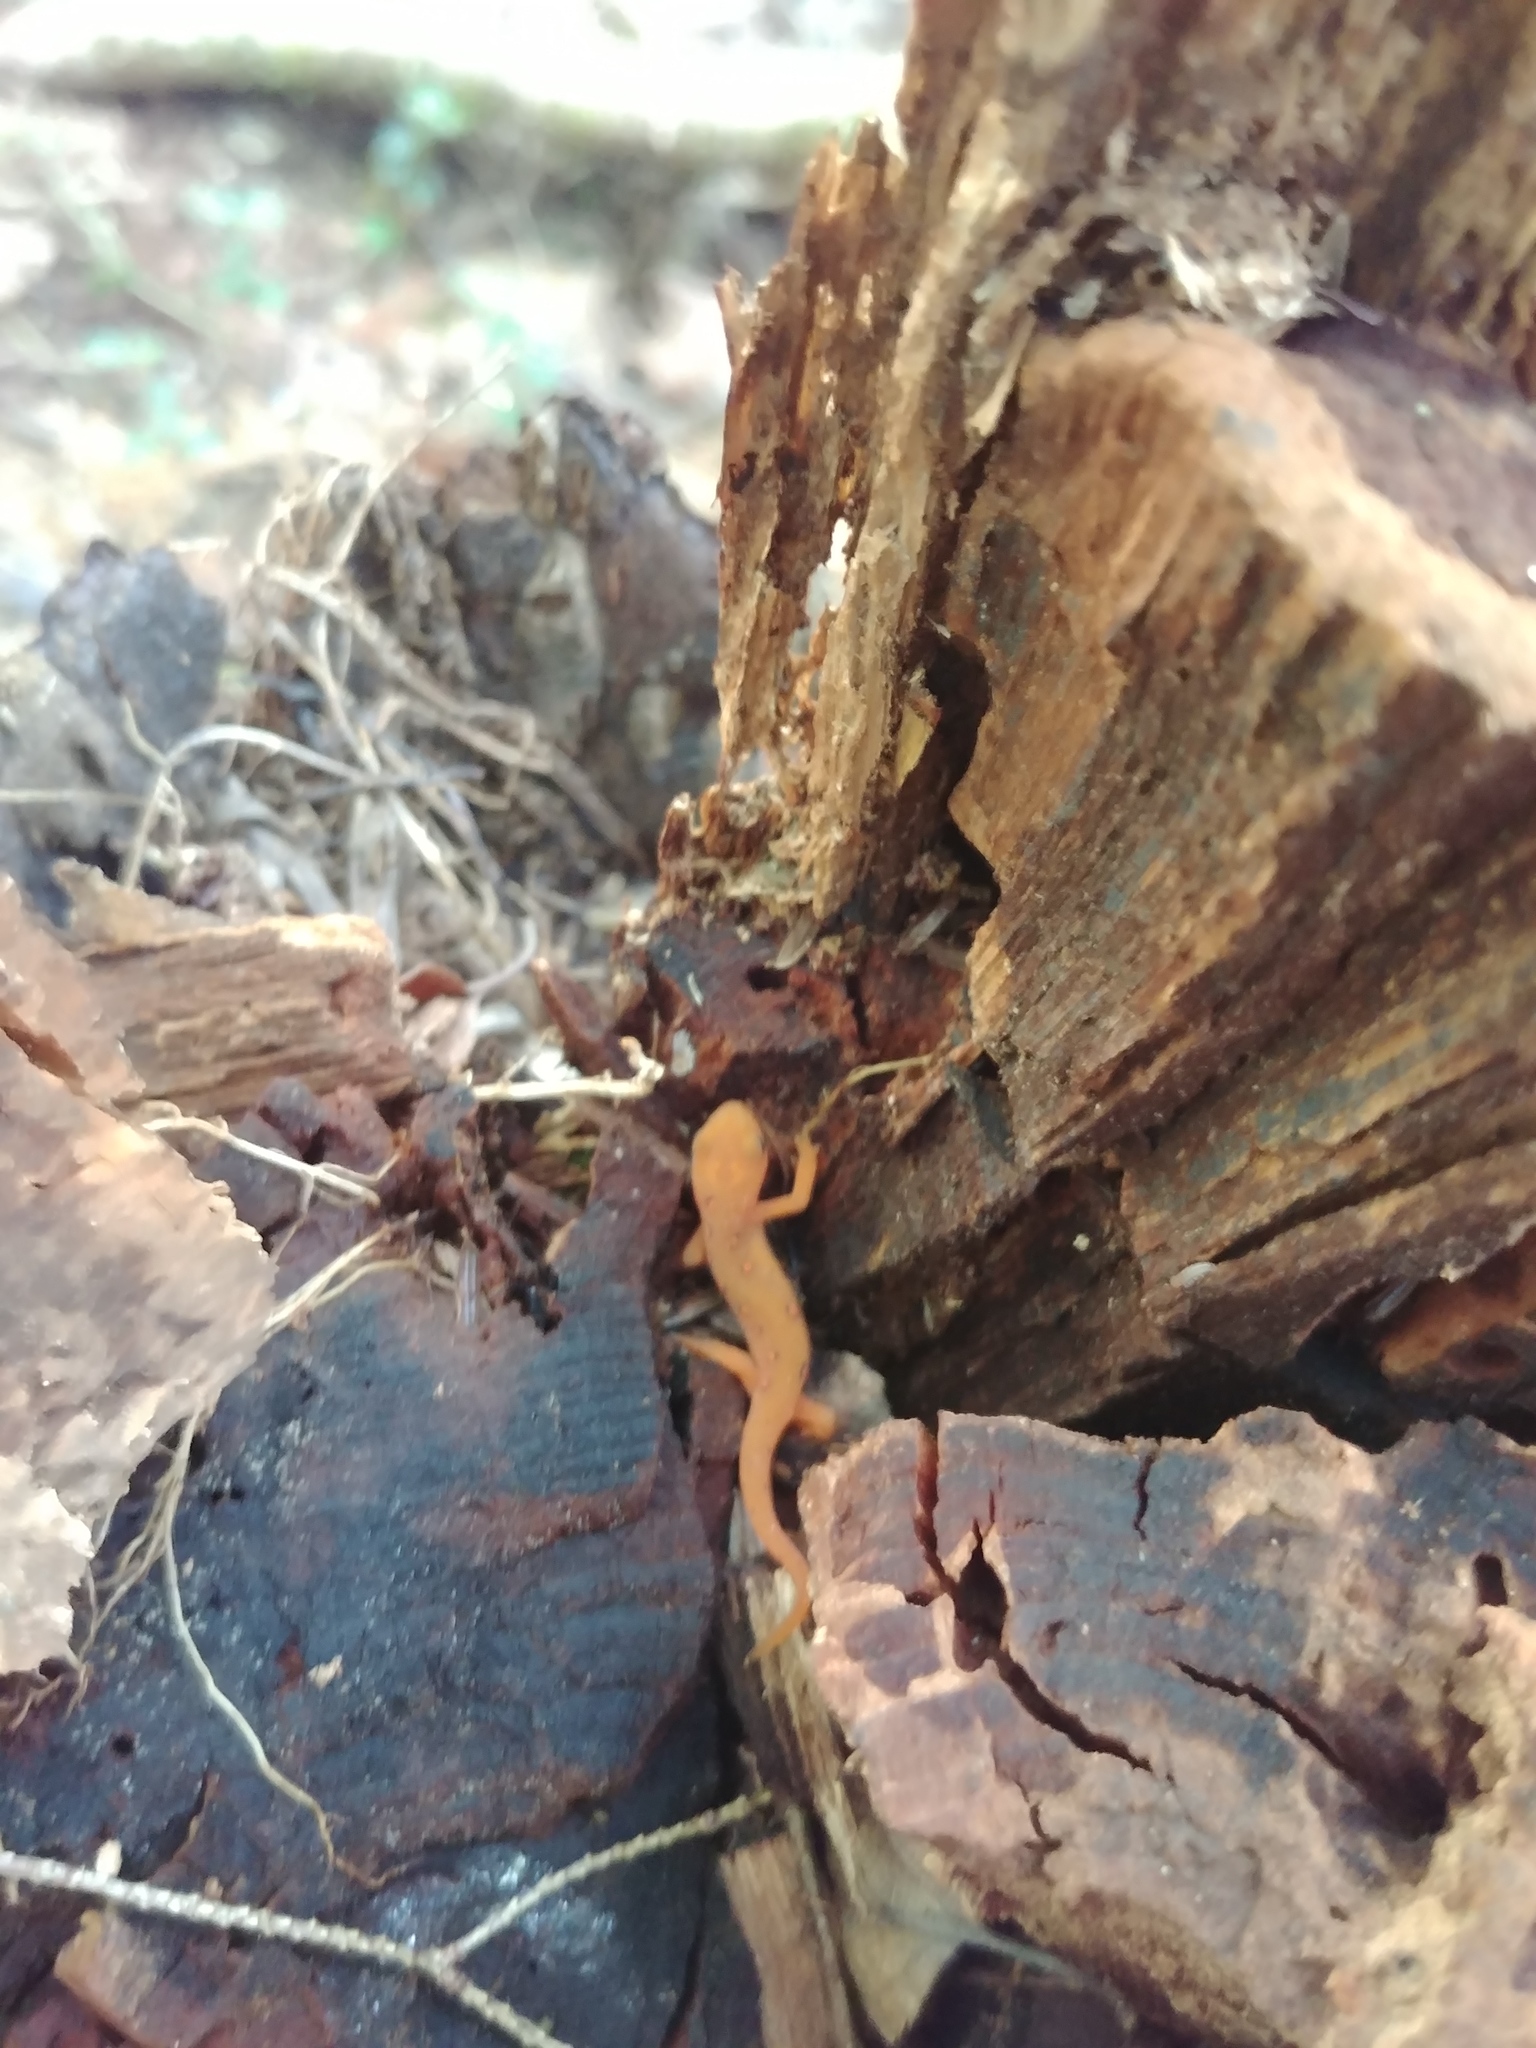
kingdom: Animalia
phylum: Chordata
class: Amphibia
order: Caudata
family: Salamandridae
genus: Notophthalmus
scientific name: Notophthalmus viridescens
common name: Eastern newt
